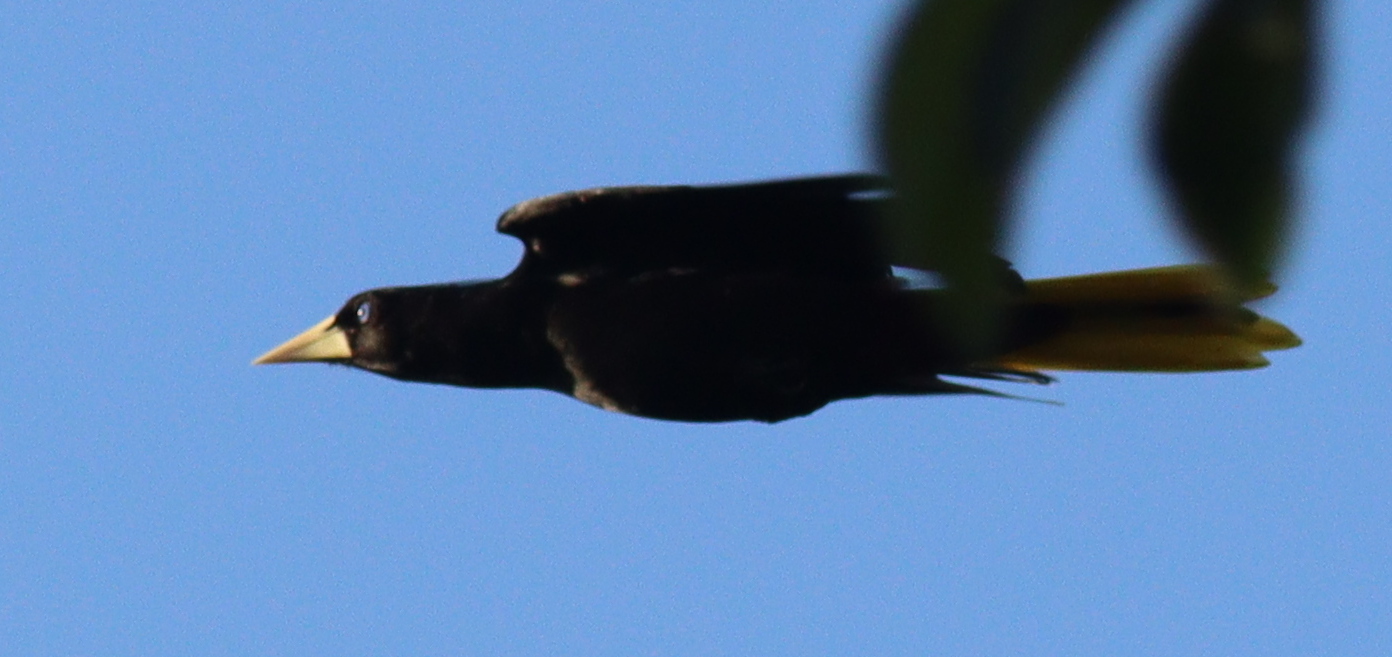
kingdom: Animalia
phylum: Chordata
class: Aves
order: Passeriformes
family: Icteridae
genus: Psarocolius
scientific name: Psarocolius decumanus
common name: Crested oropendola
